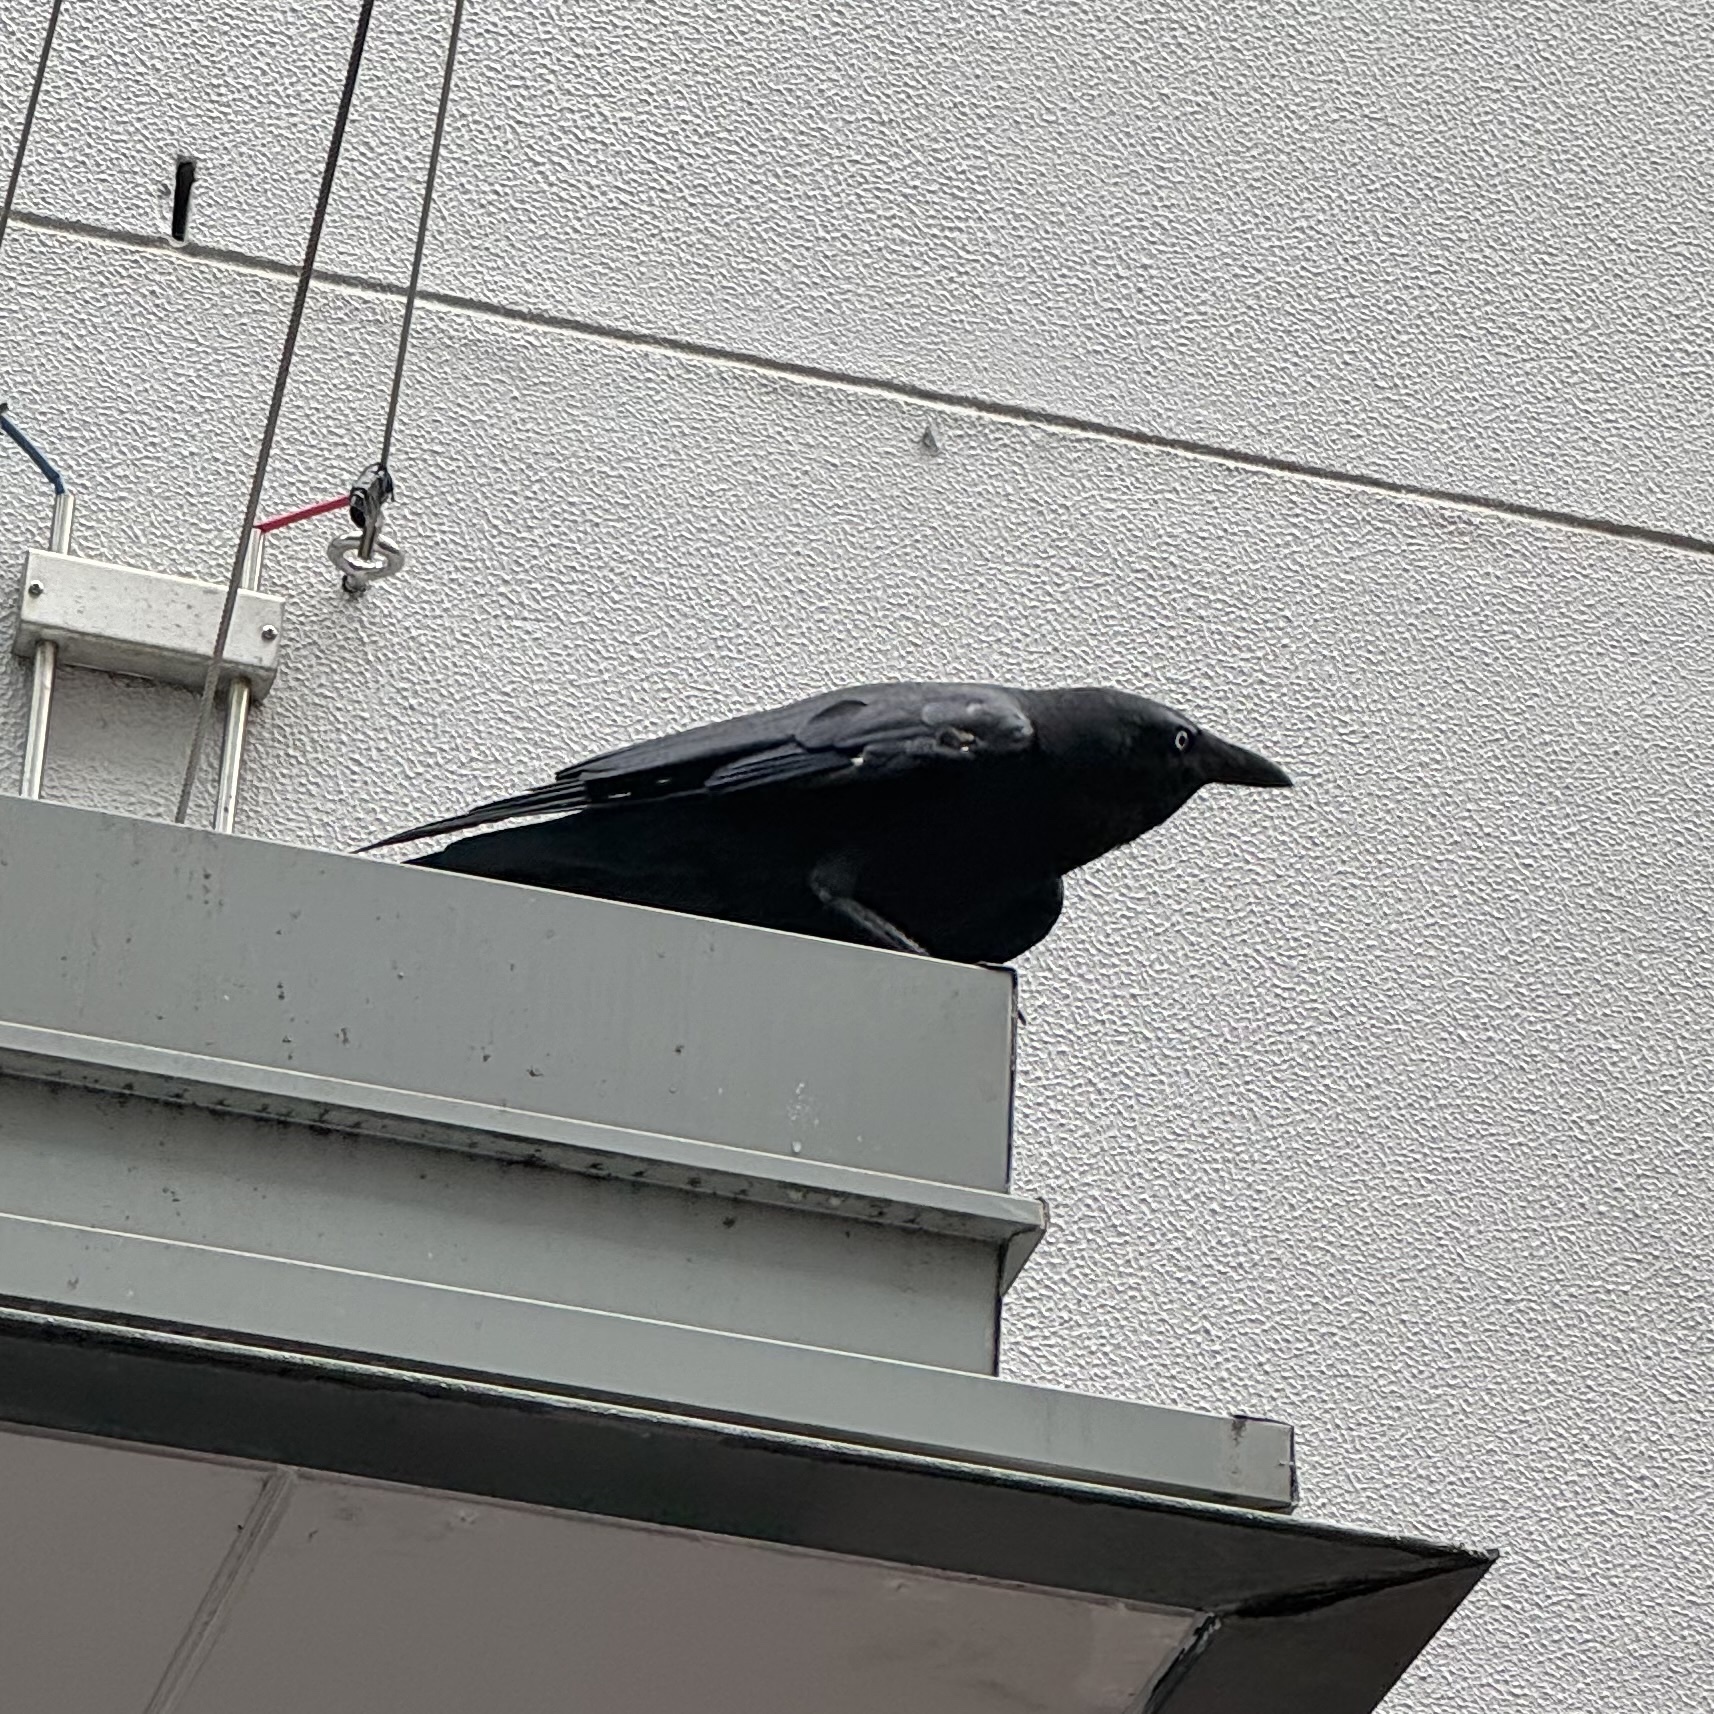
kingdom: Animalia
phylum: Chordata
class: Aves
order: Passeriformes
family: Corvidae
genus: Corvus
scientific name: Corvus orru
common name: Torresian crow
